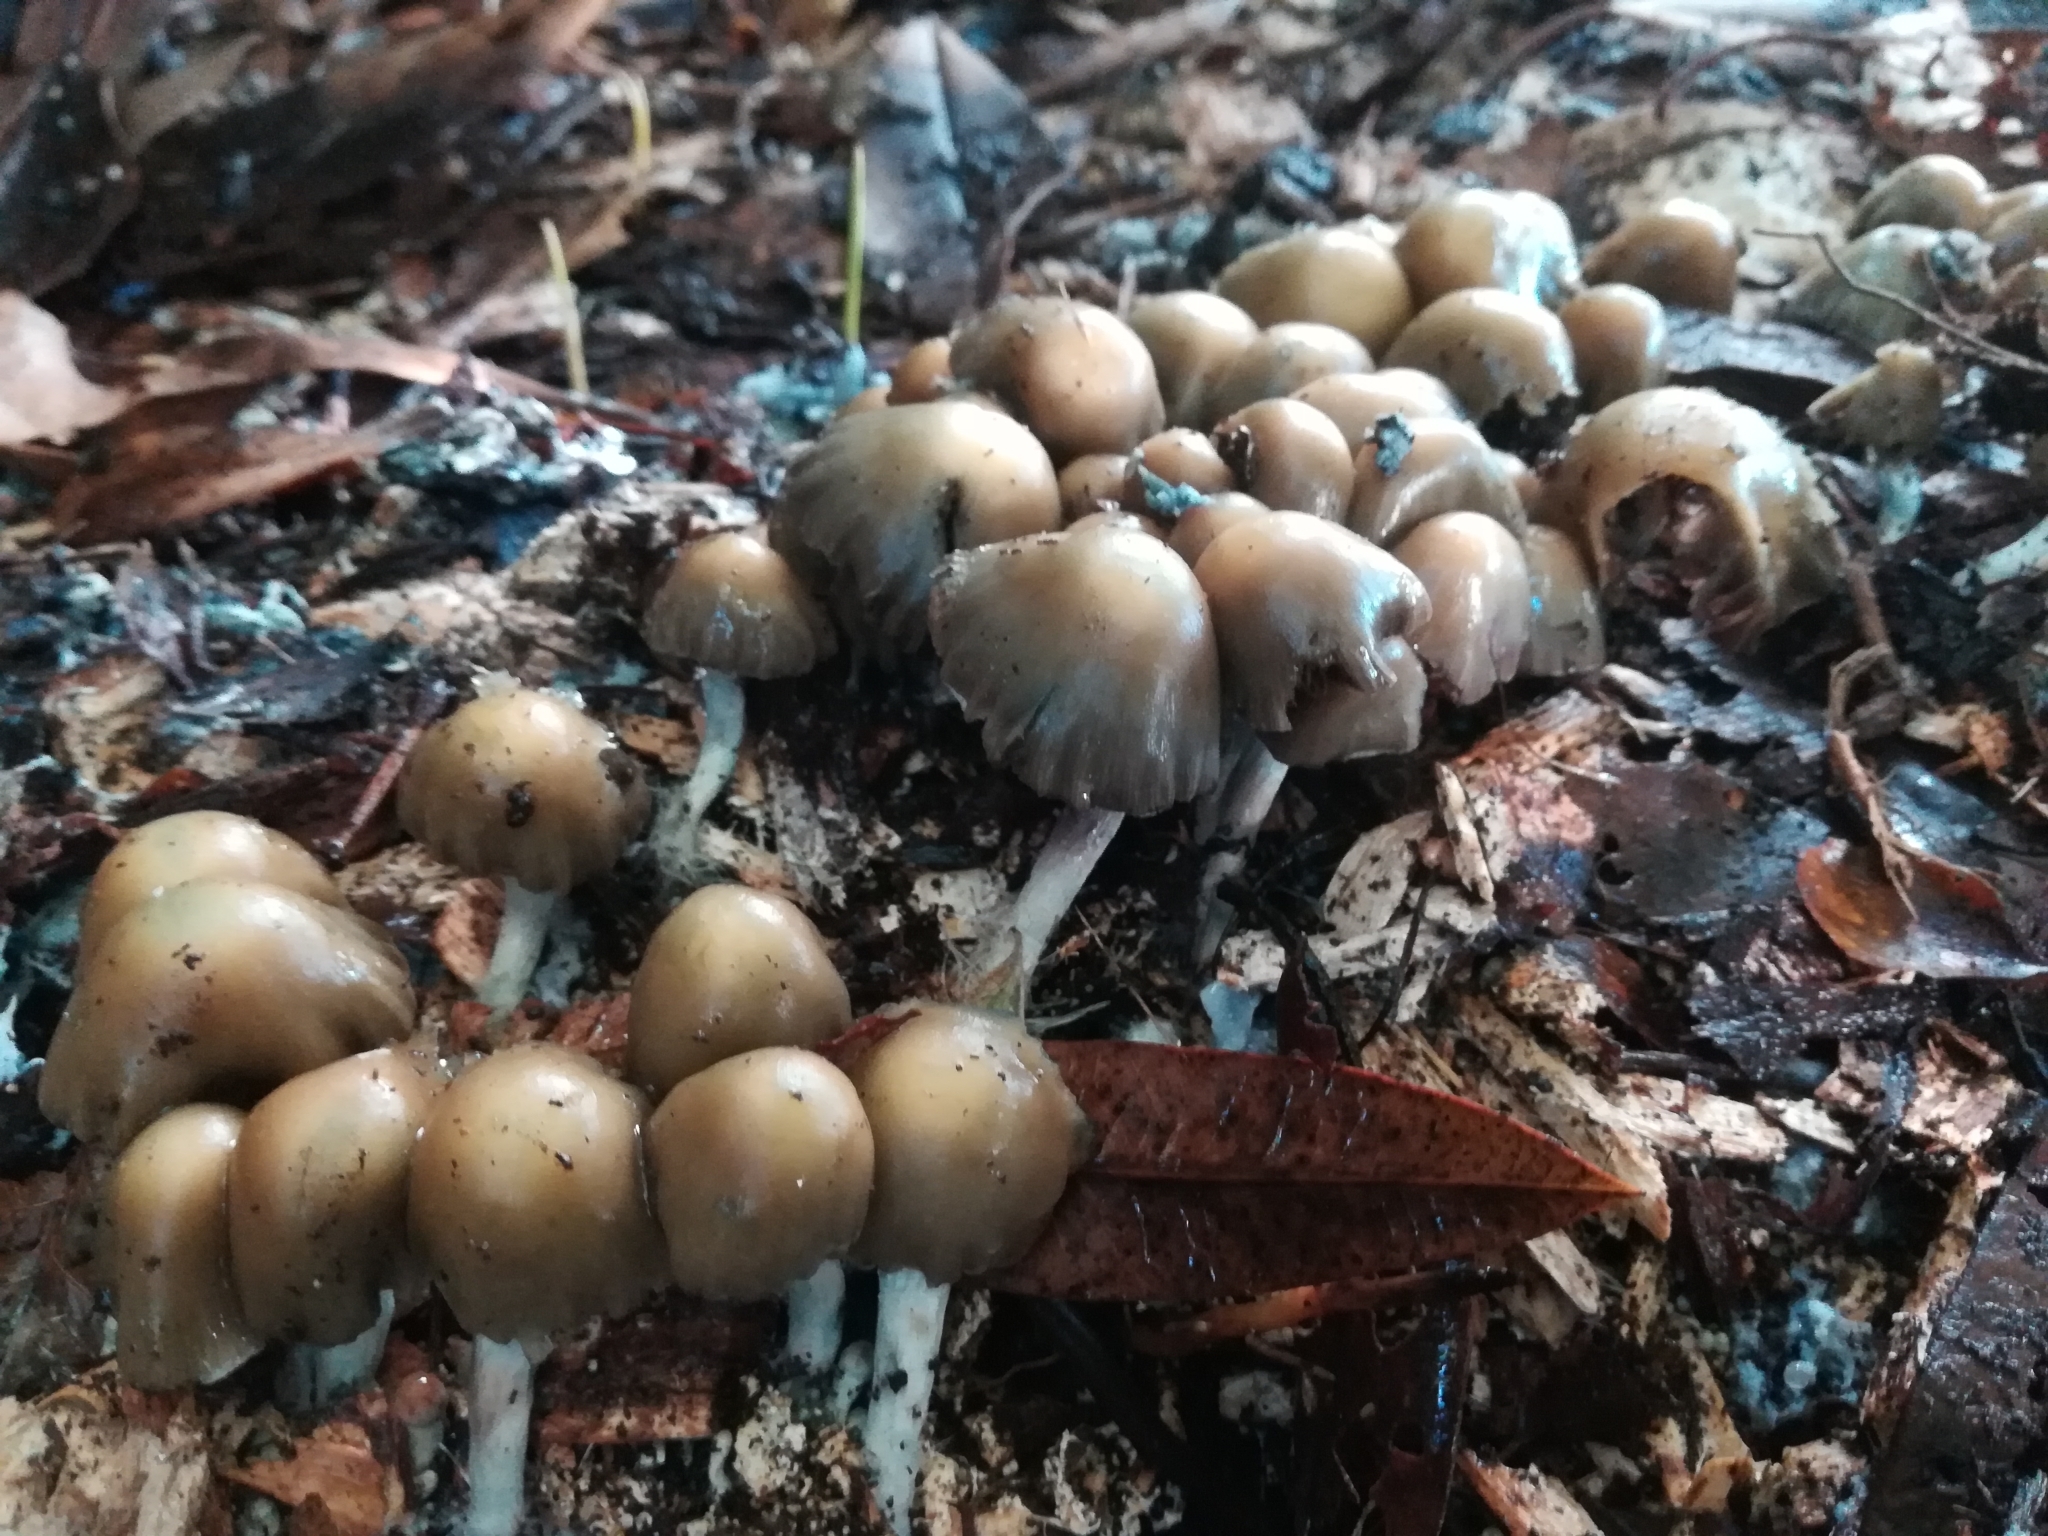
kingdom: Fungi
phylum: Basidiomycota
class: Agaricomycetes
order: Agaricales
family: Hymenogastraceae
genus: Psilocybe
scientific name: Psilocybe weraroa
